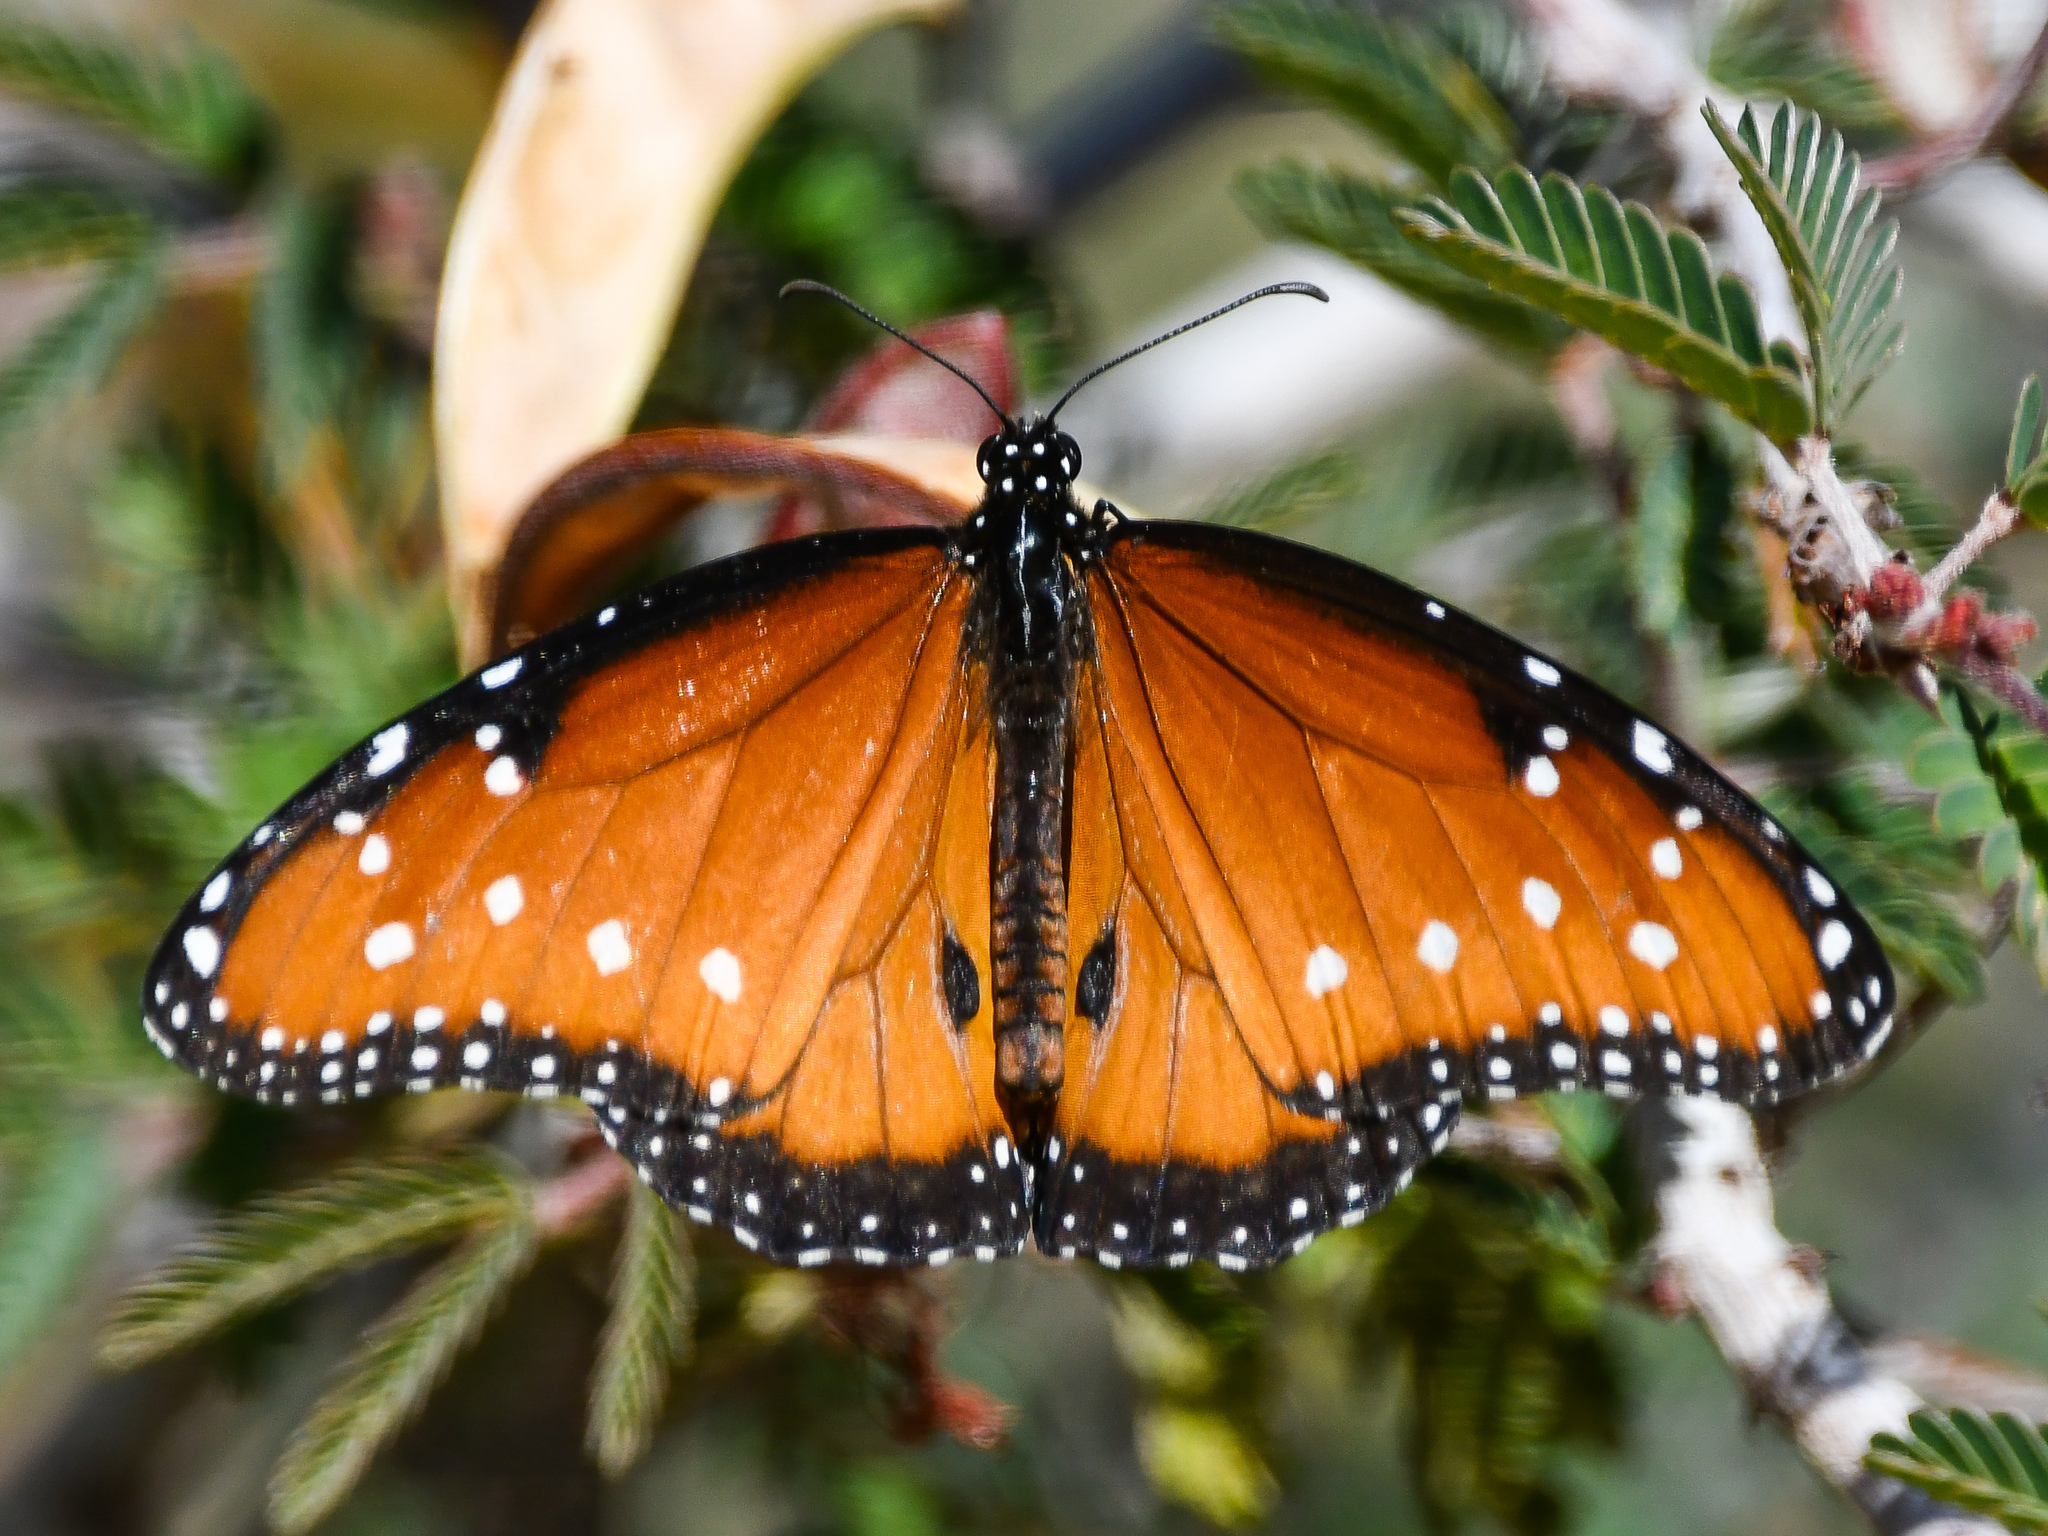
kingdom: Animalia
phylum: Arthropoda
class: Insecta
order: Lepidoptera
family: Nymphalidae
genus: Danaus
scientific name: Danaus gilippus
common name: Queen
